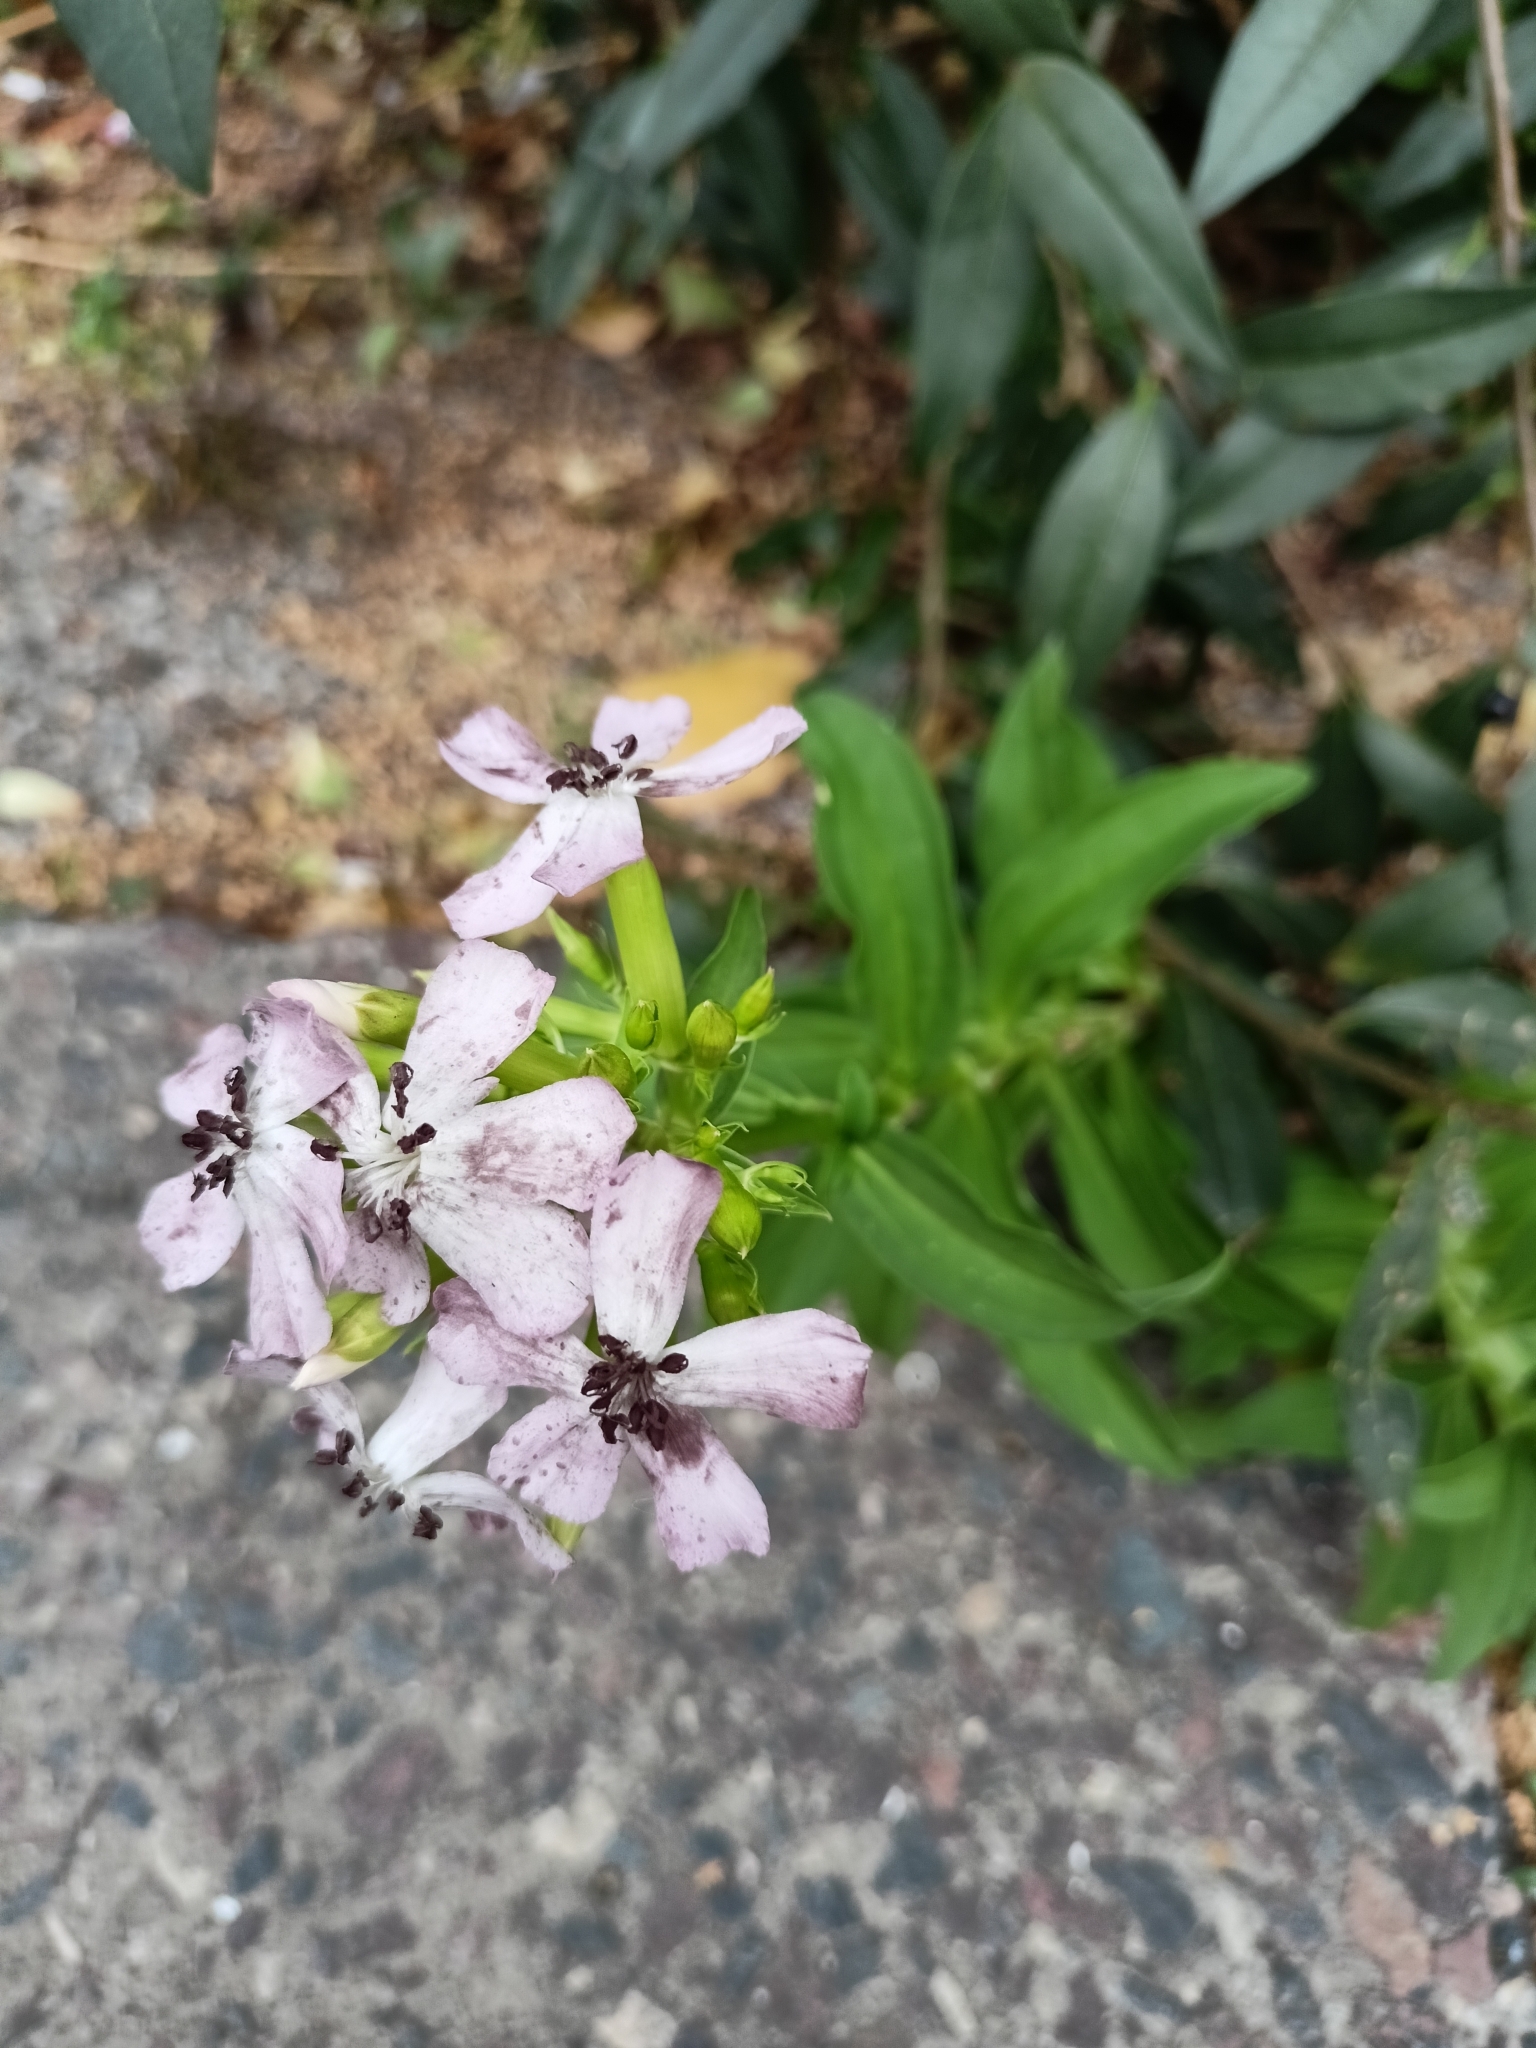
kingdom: Plantae
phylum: Tracheophyta
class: Magnoliopsida
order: Caryophyllales
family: Caryophyllaceae
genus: Saponaria
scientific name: Saponaria officinalis
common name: Soapwort
